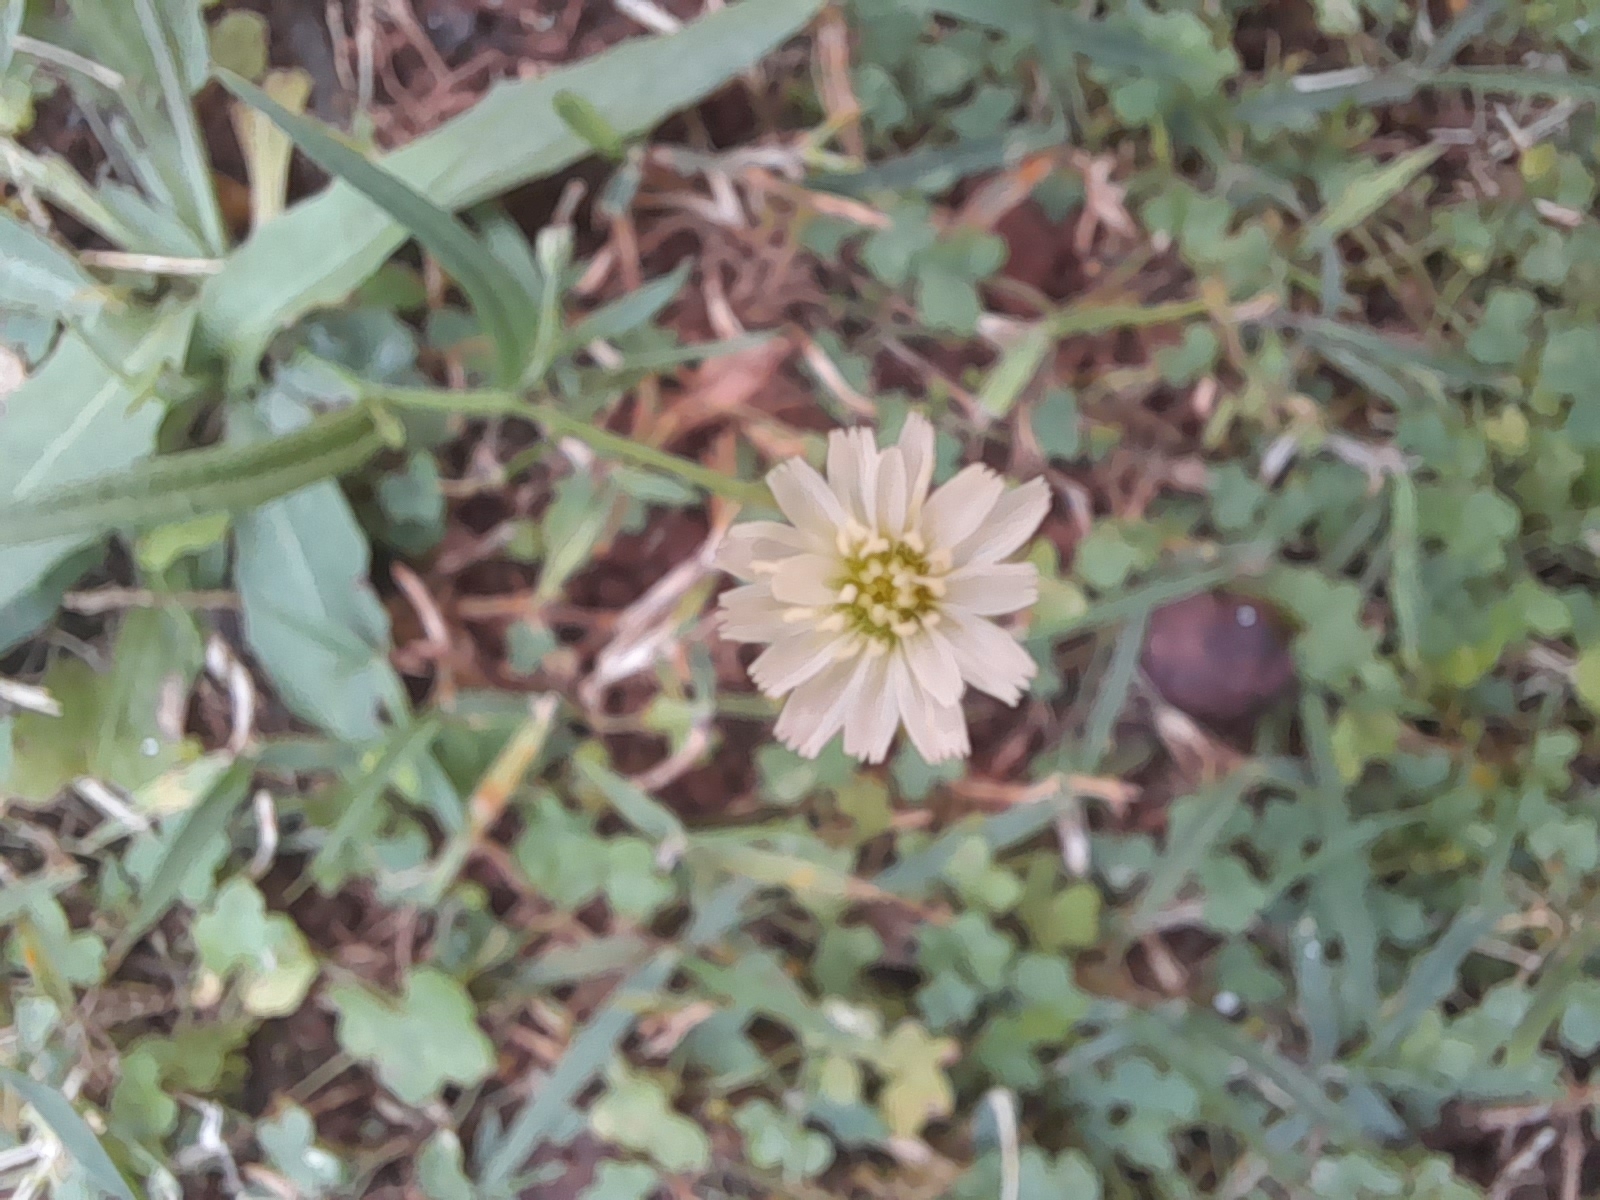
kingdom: Plantae
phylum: Tracheophyta
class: Magnoliopsida
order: Asterales
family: Asteraceae
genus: Hypochaeris
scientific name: Hypochaeris albiflora
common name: White flatweed
